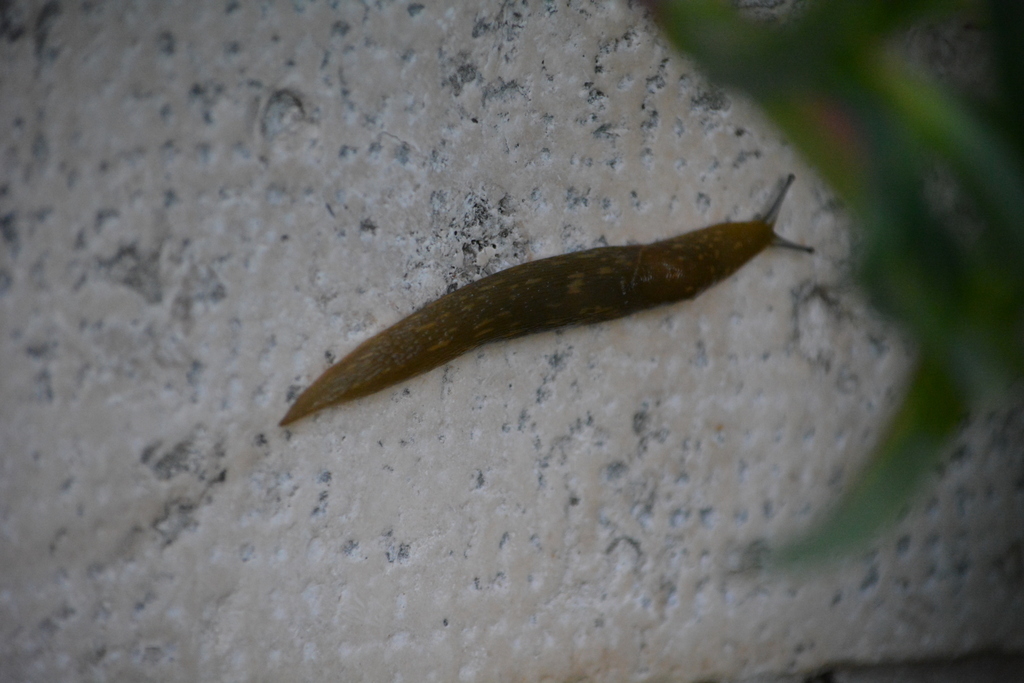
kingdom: Animalia
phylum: Mollusca
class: Gastropoda
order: Stylommatophora
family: Limacidae
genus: Limacus
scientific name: Limacus flavus
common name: Yellow gardenslug
